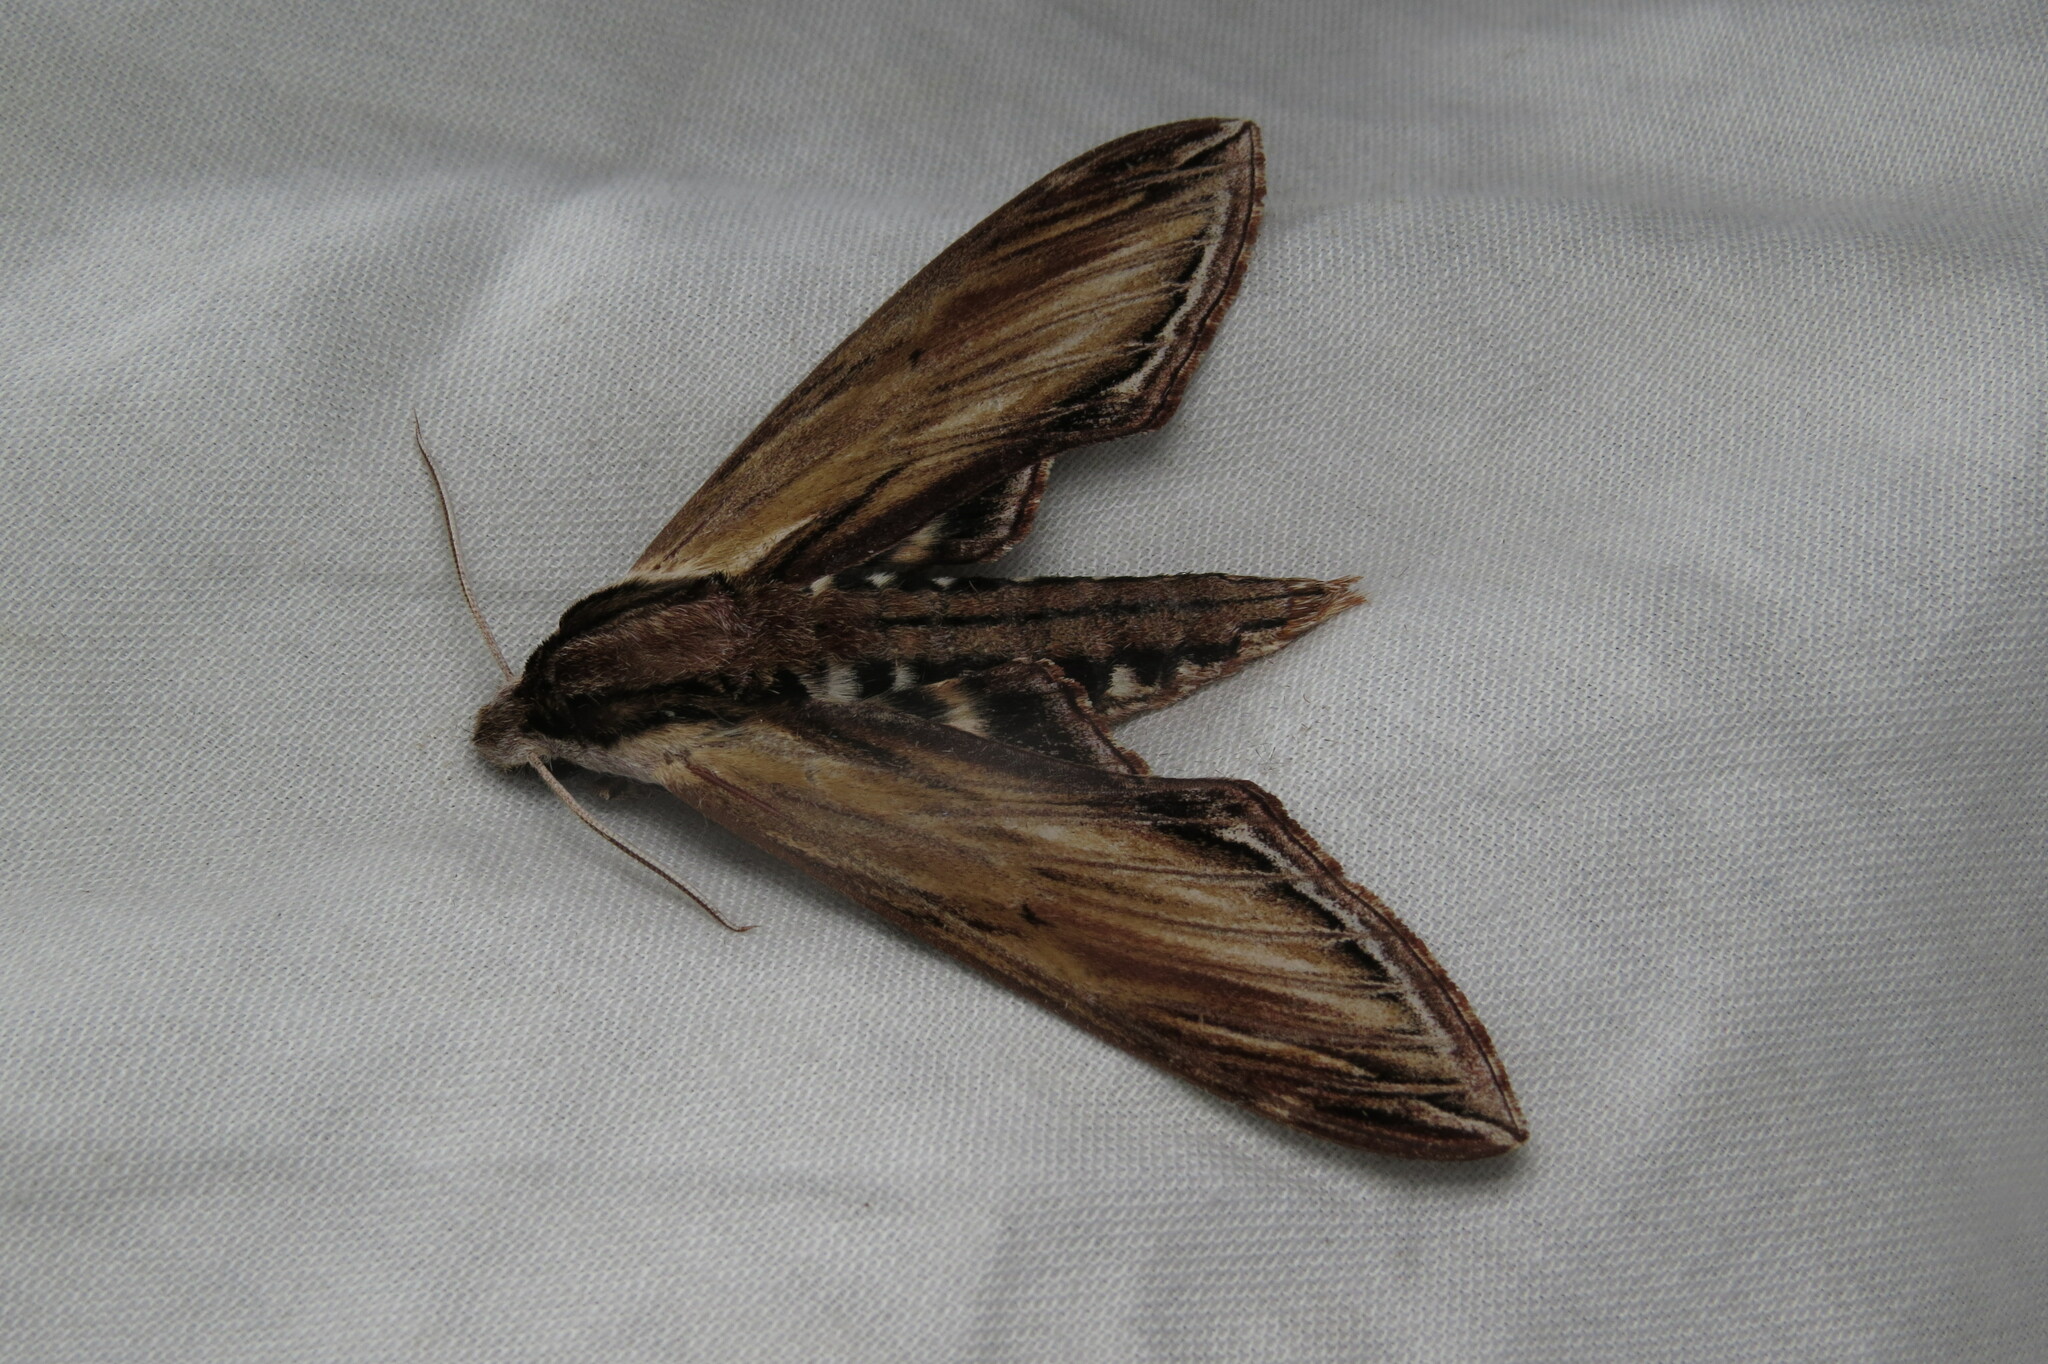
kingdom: Animalia
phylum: Arthropoda
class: Insecta
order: Lepidoptera
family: Sphingidae
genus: Sphinx
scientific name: Sphinx kalmiae
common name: Laurel sphinx
